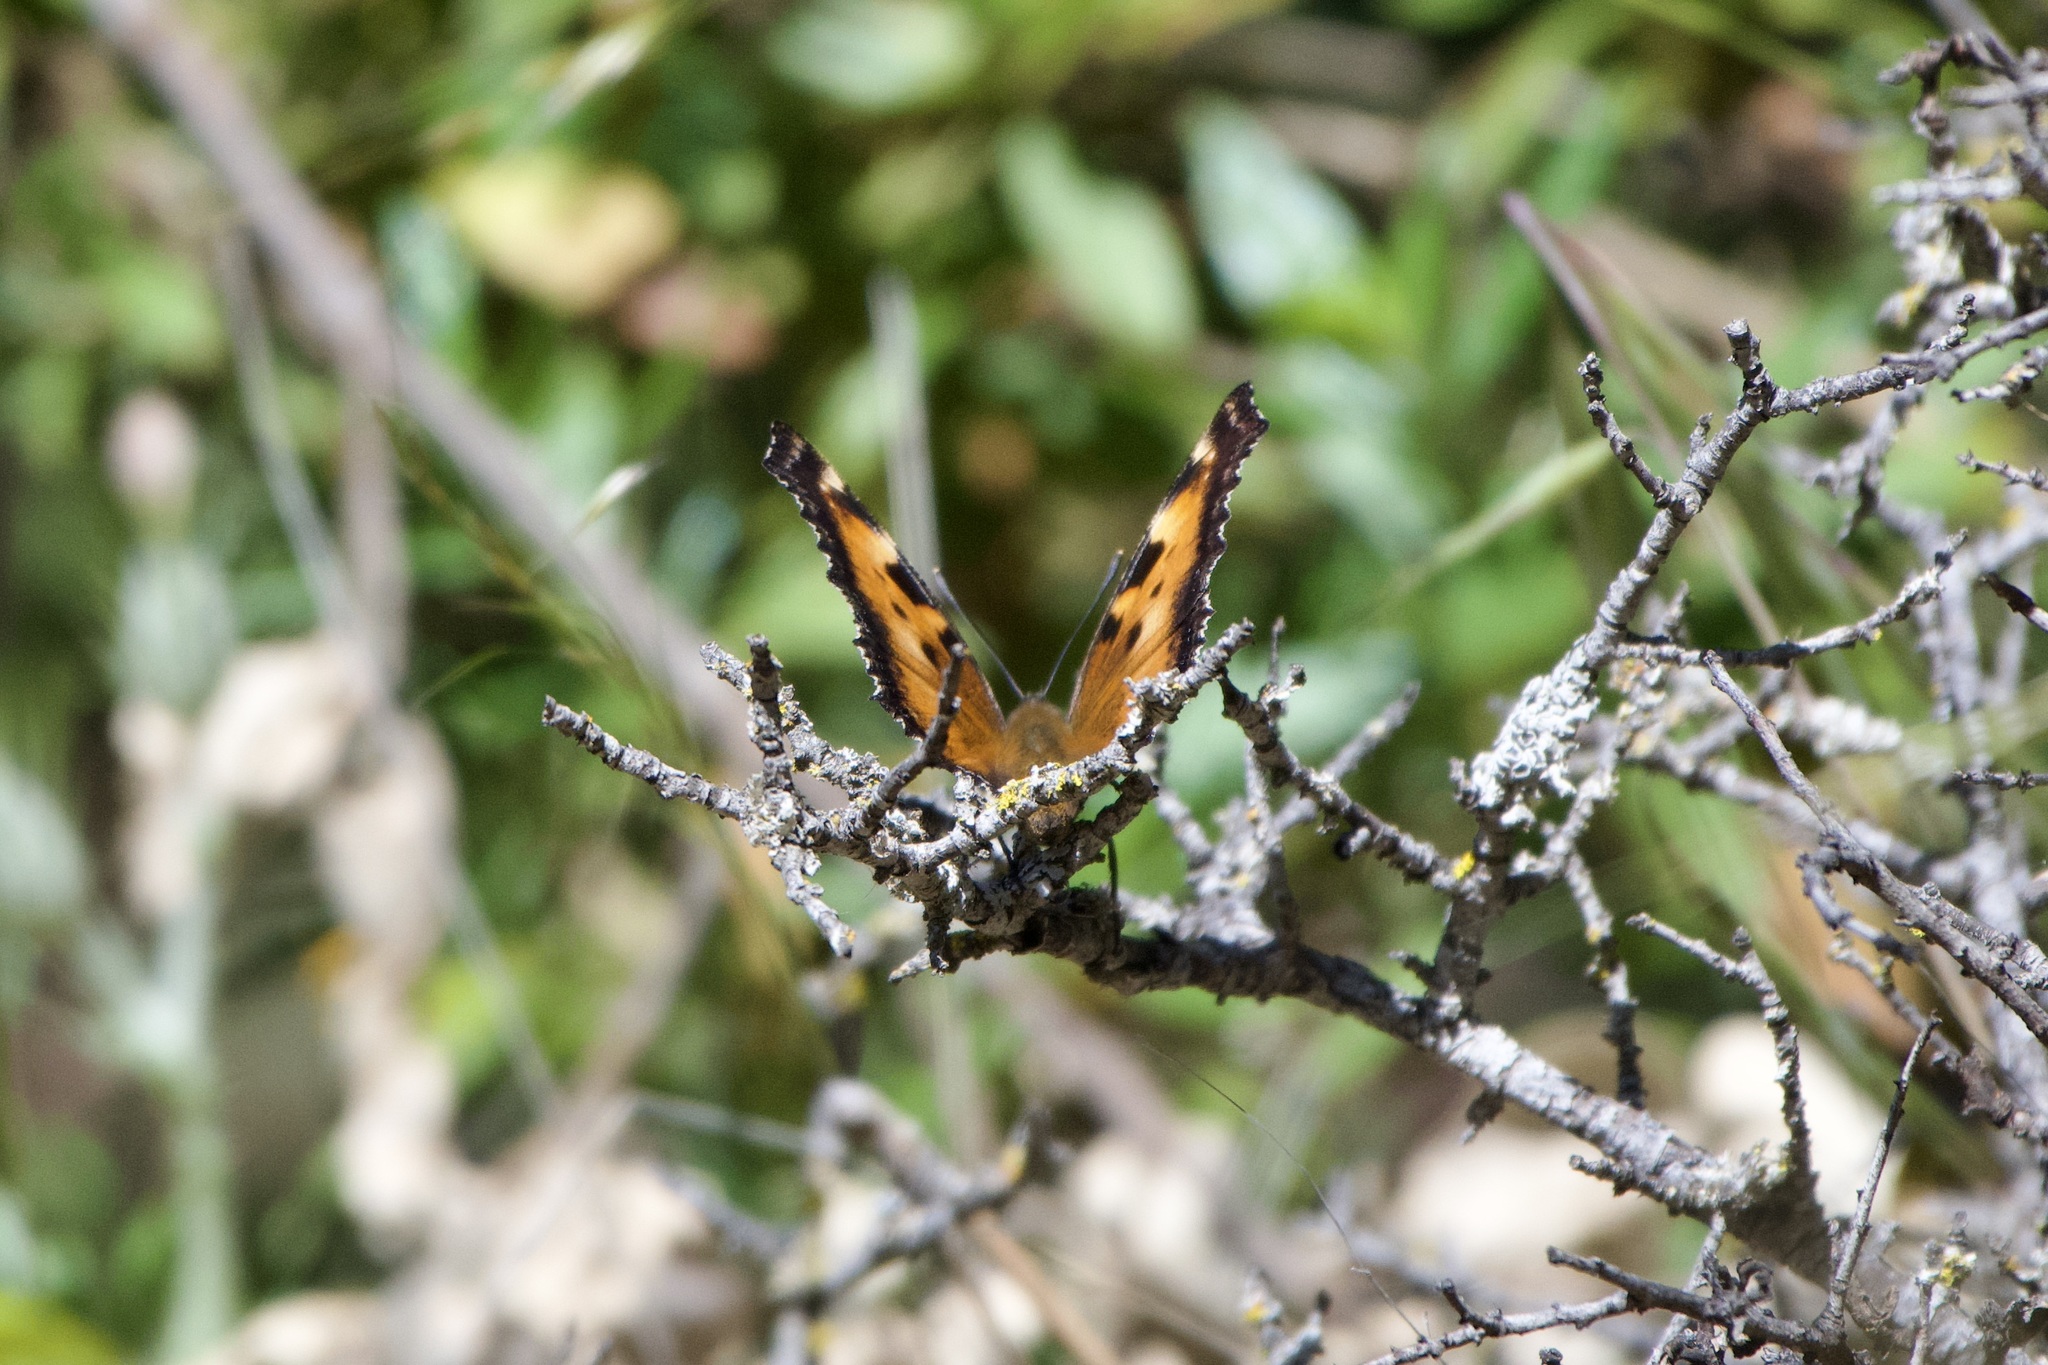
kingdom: Animalia
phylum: Arthropoda
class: Insecta
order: Lepidoptera
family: Nymphalidae
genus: Nymphalis
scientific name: Nymphalis californica
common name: California tortoiseshell
